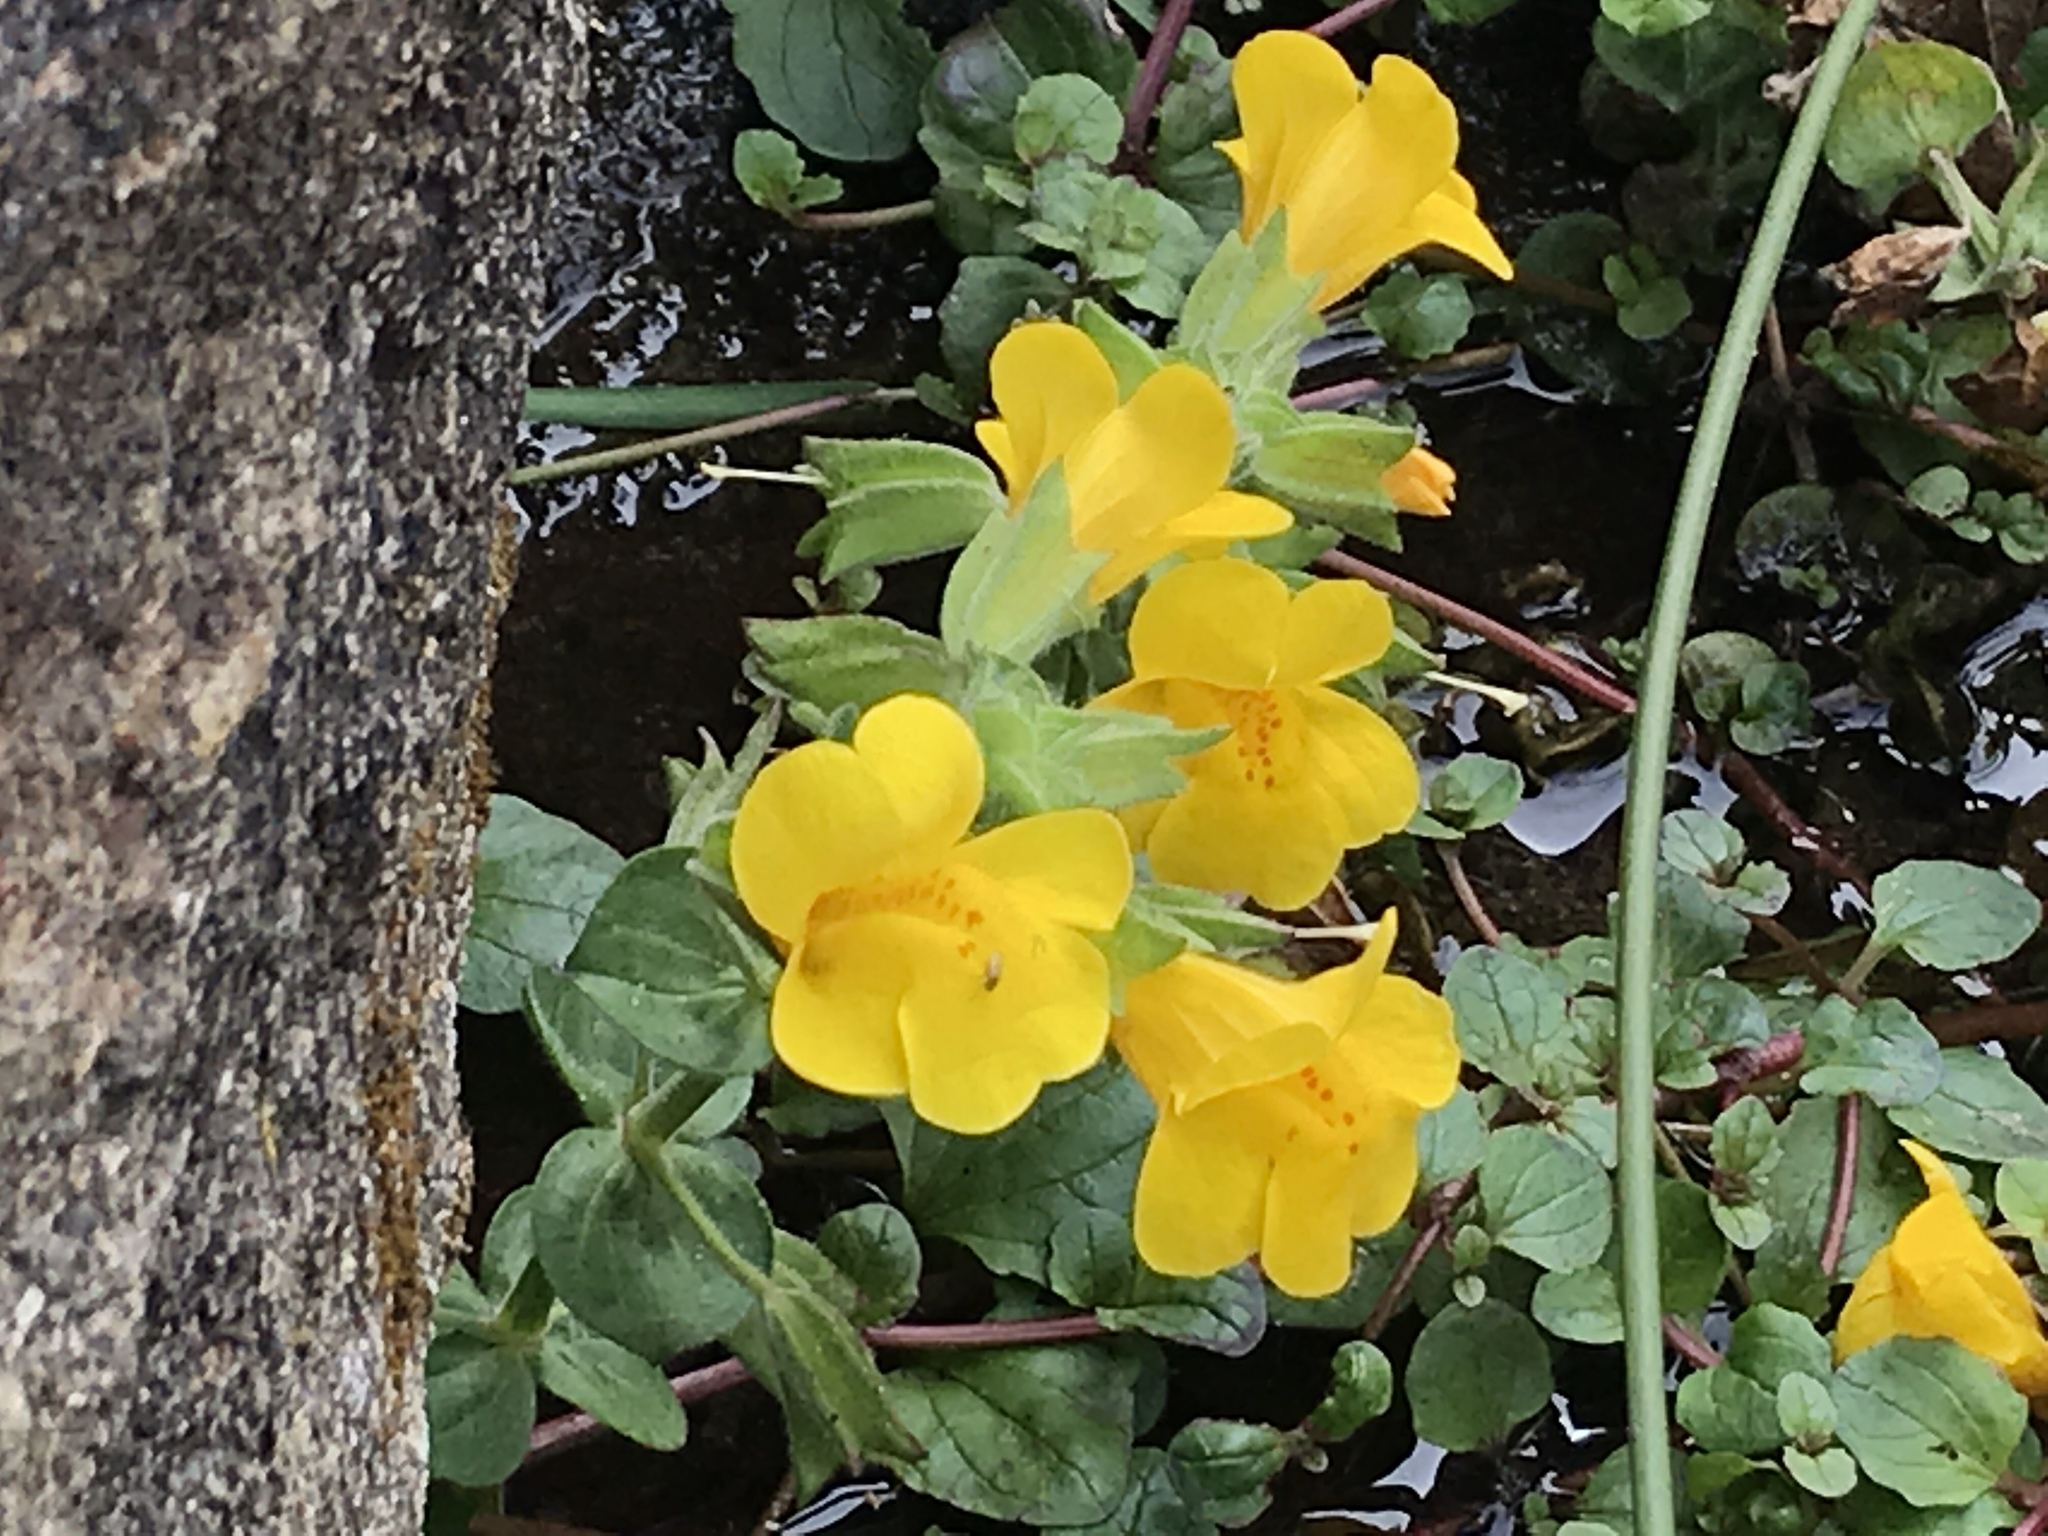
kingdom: Plantae
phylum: Tracheophyta
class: Magnoliopsida
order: Lamiales
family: Phrymaceae
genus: Erythranthe
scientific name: Erythranthe grandis
